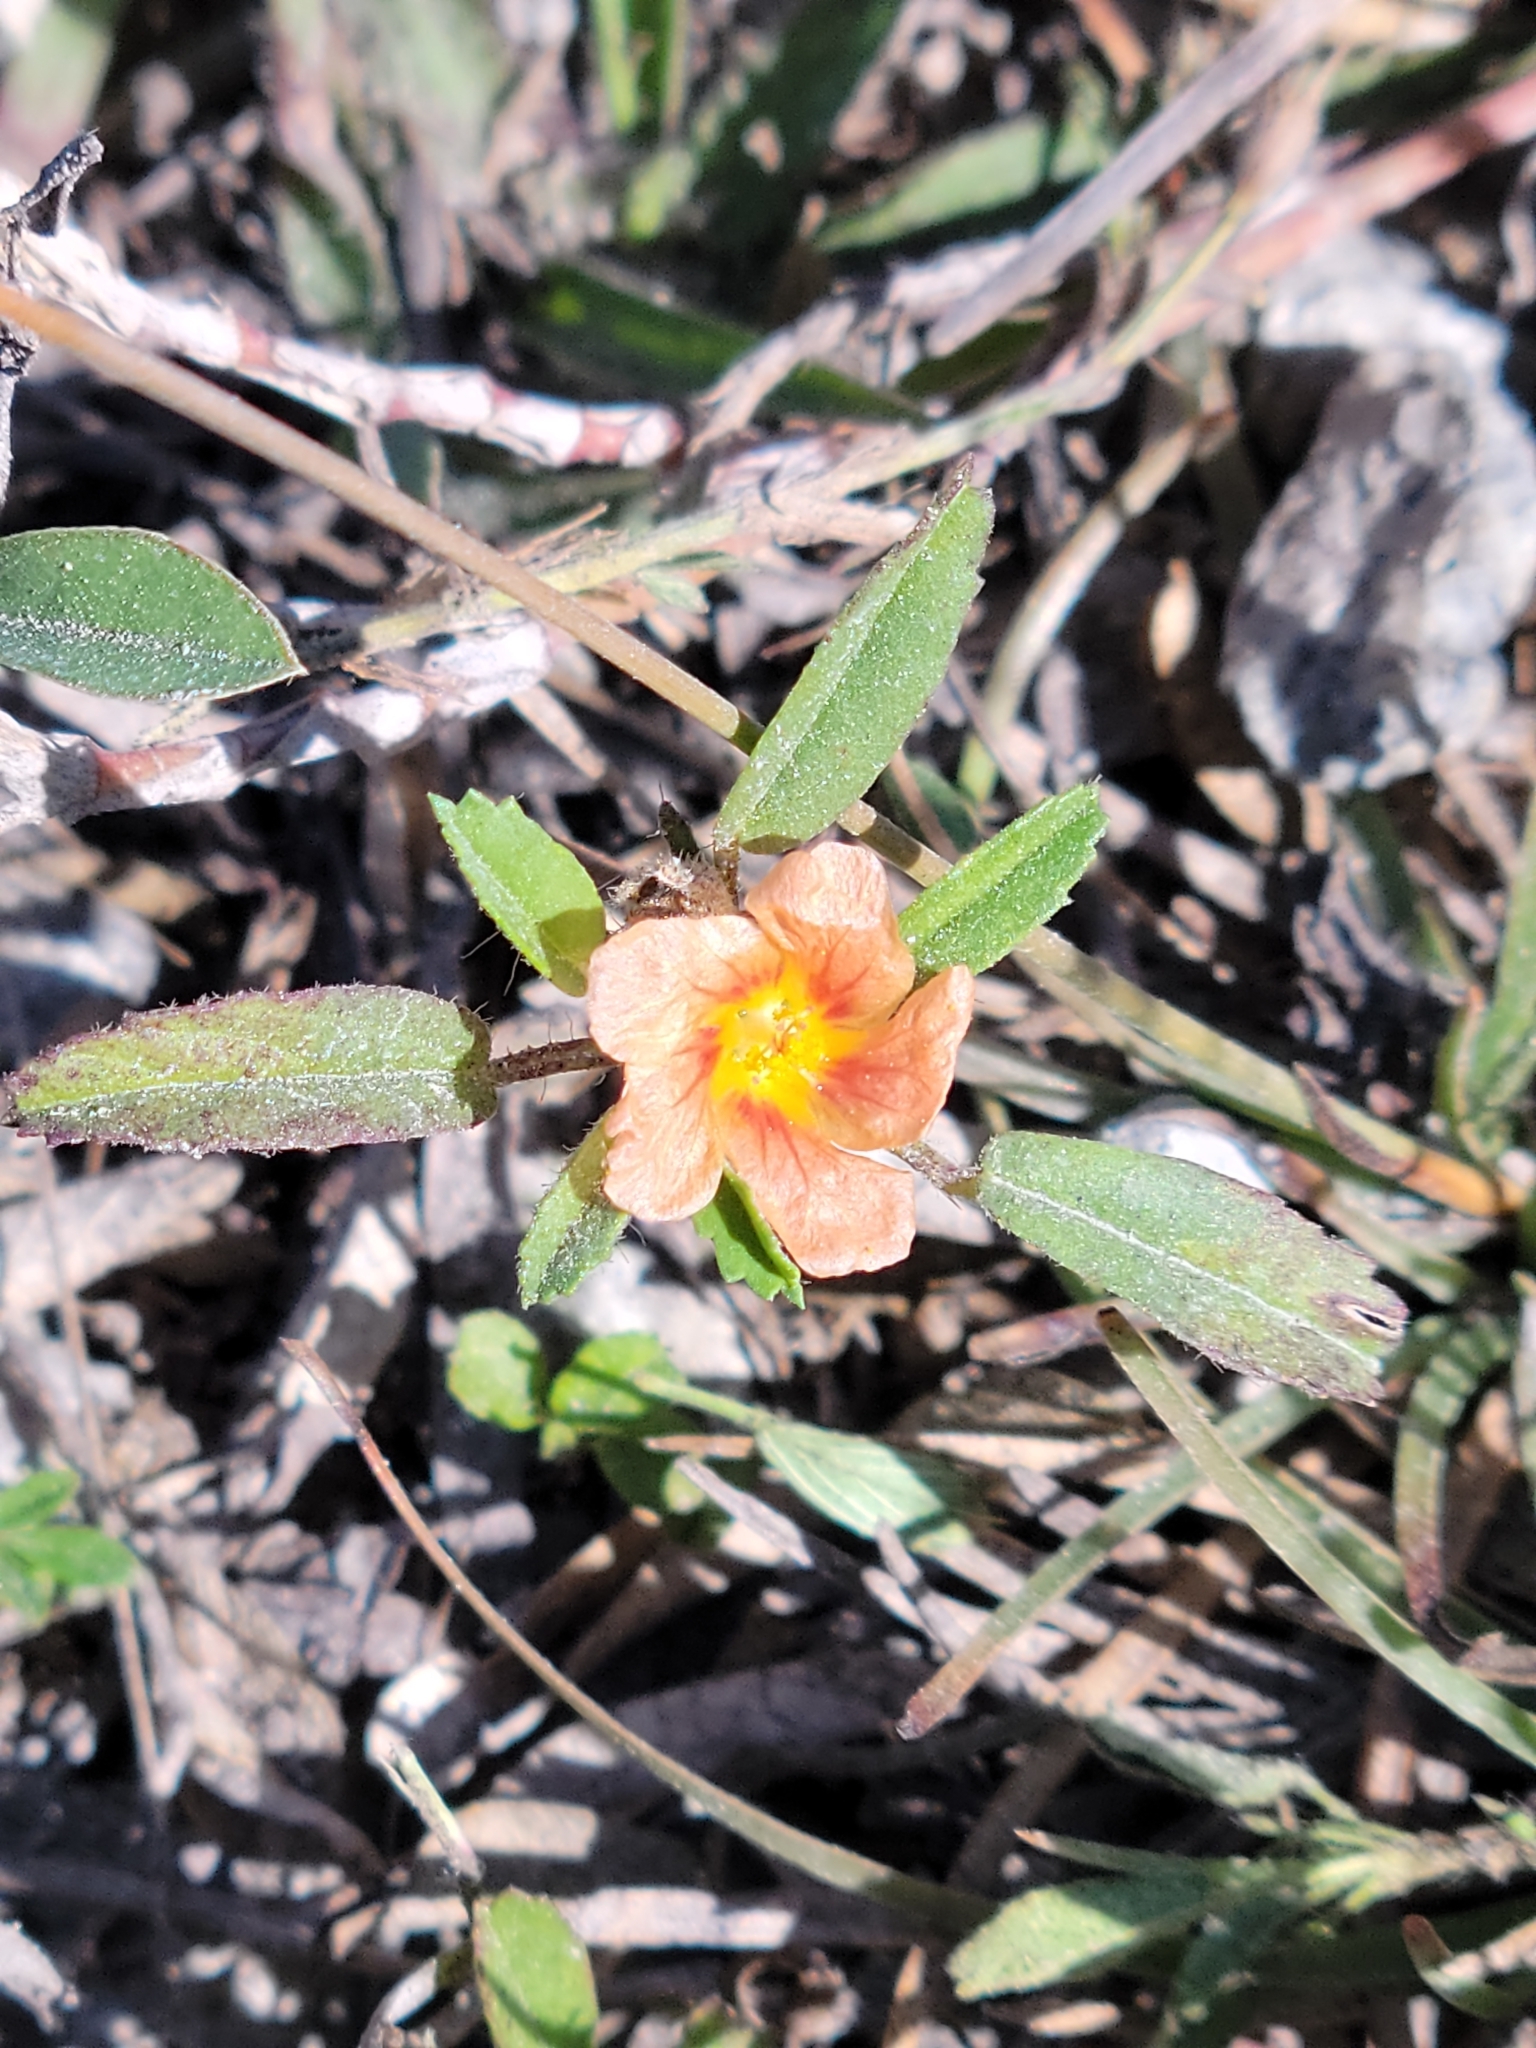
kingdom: Plantae
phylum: Tracheophyta
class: Magnoliopsida
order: Malvales
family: Malvaceae
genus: Sida
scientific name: Sida ciliaris
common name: Bracted fanpetals
